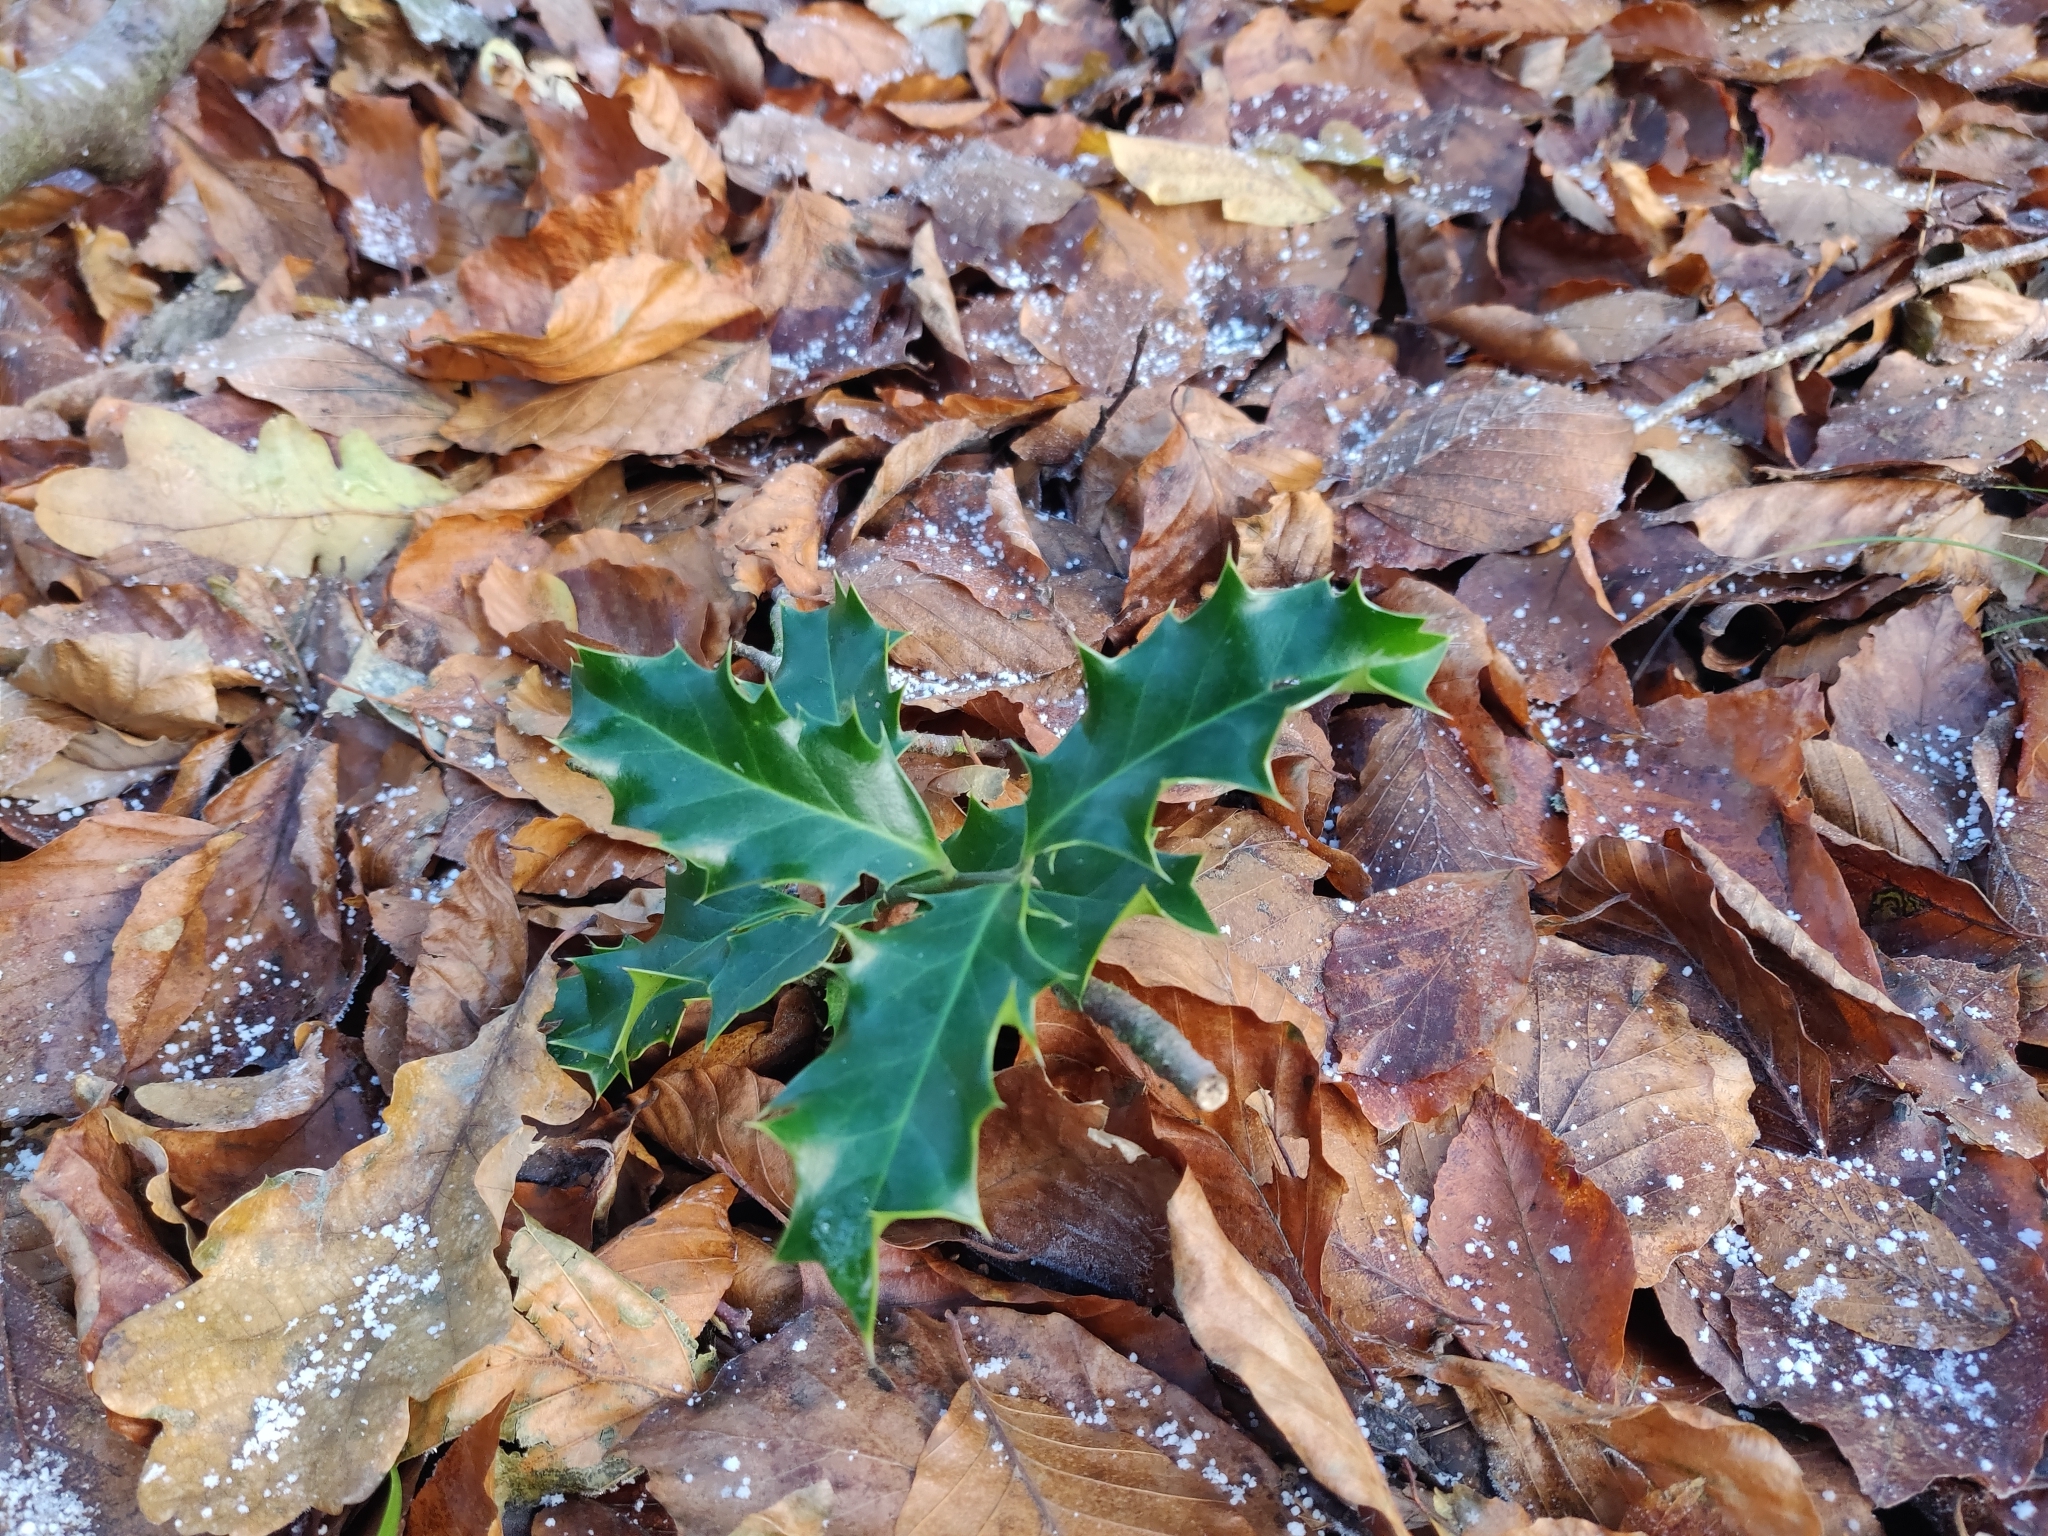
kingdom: Plantae
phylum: Tracheophyta
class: Magnoliopsida
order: Aquifoliales
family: Aquifoliaceae
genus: Ilex
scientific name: Ilex aquifolium
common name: English holly
